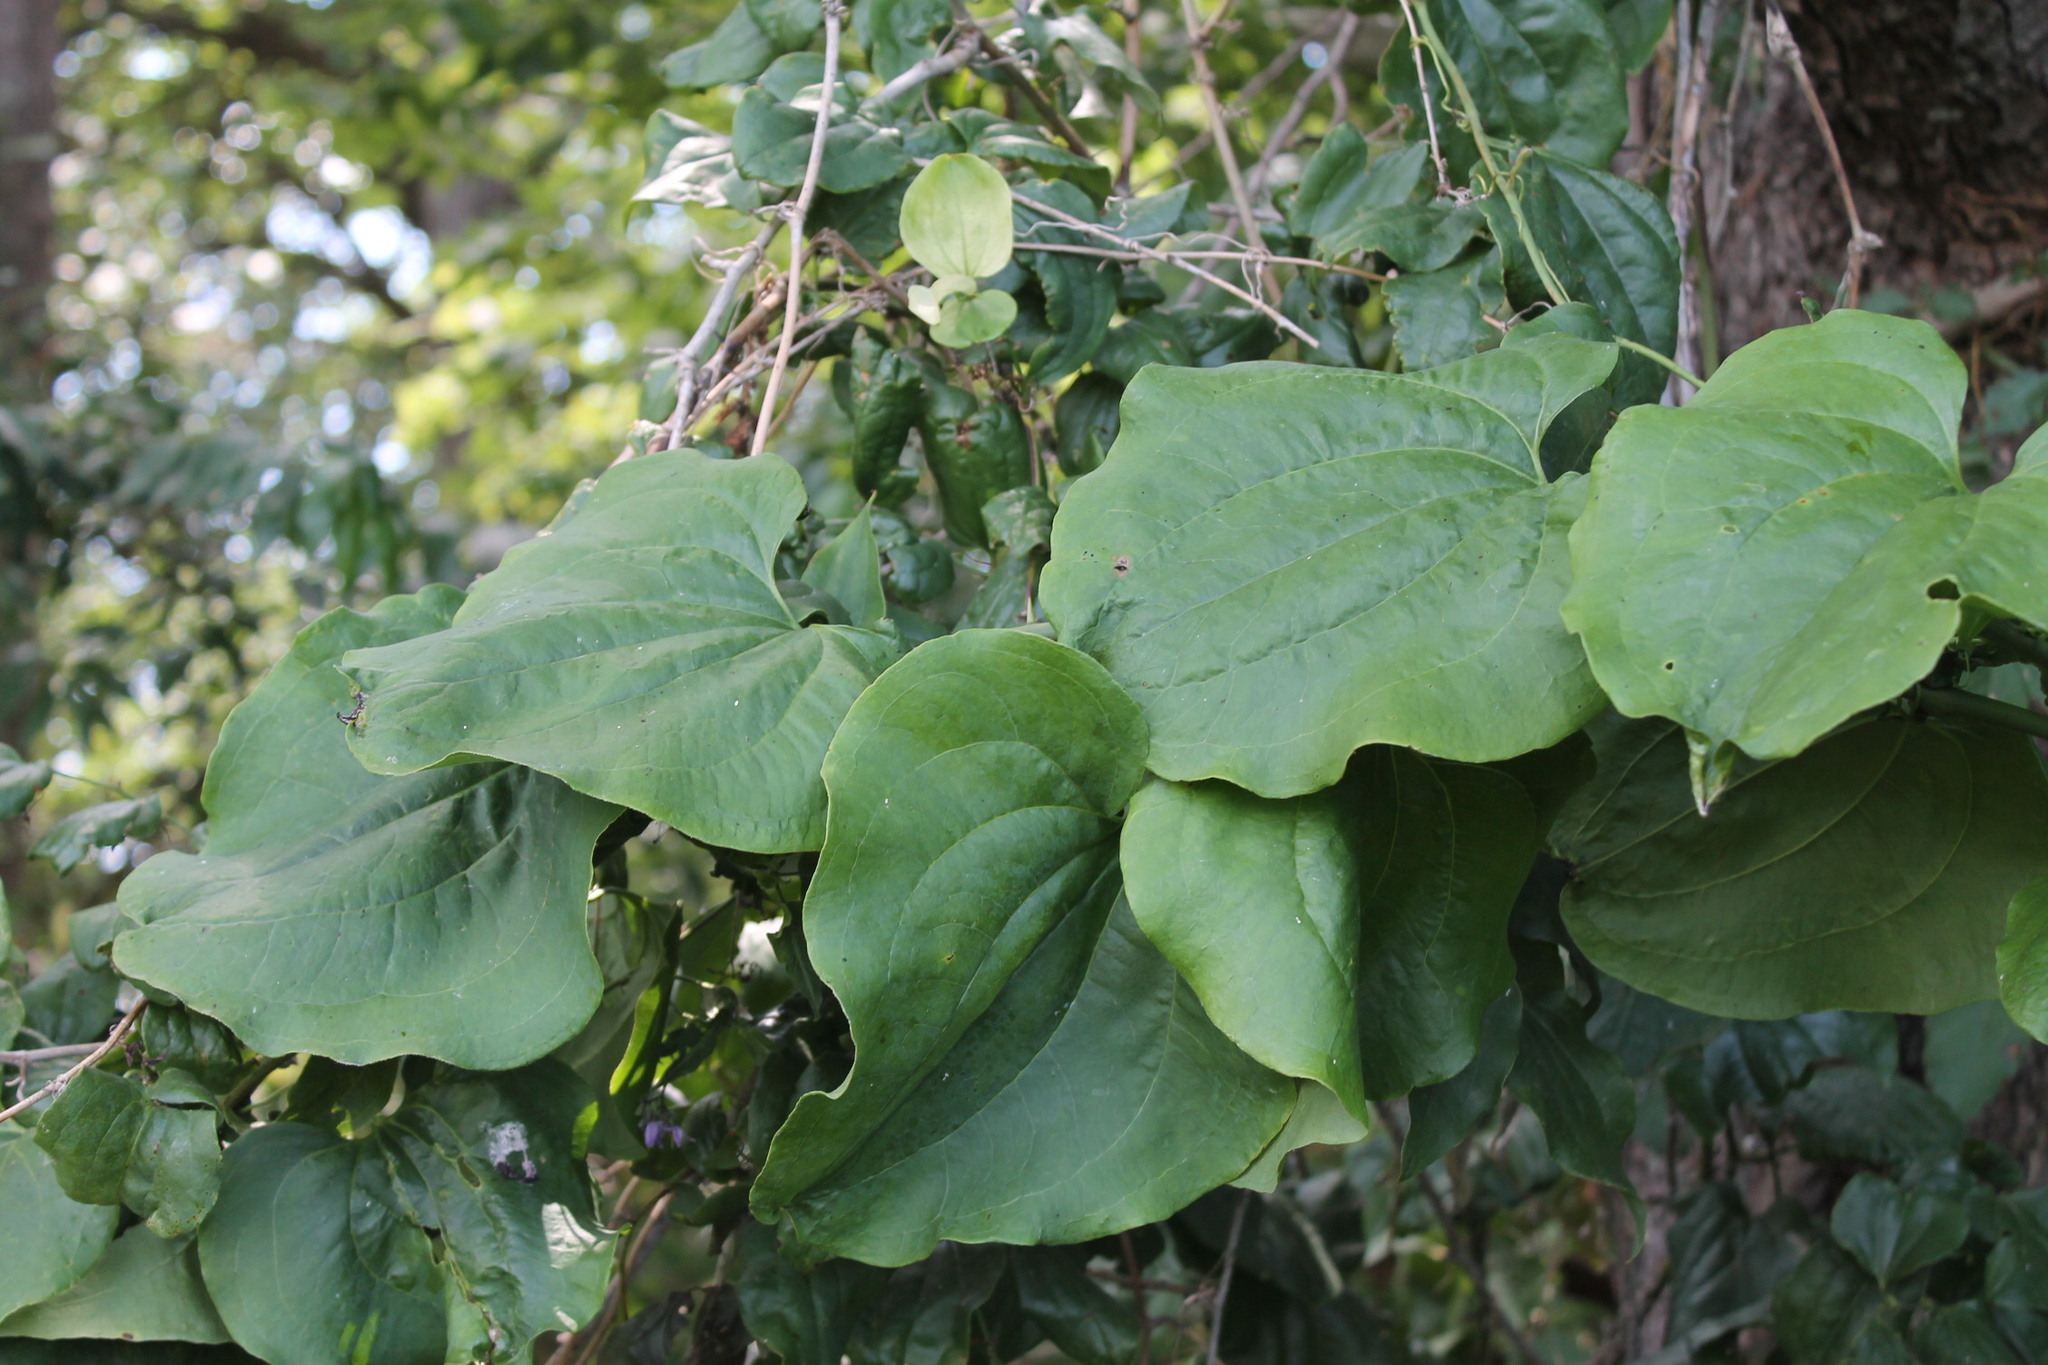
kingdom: Plantae
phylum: Tracheophyta
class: Liliopsida
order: Liliales
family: Smilacaceae
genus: Smilax
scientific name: Smilax tamnoides
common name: Hellfetter
